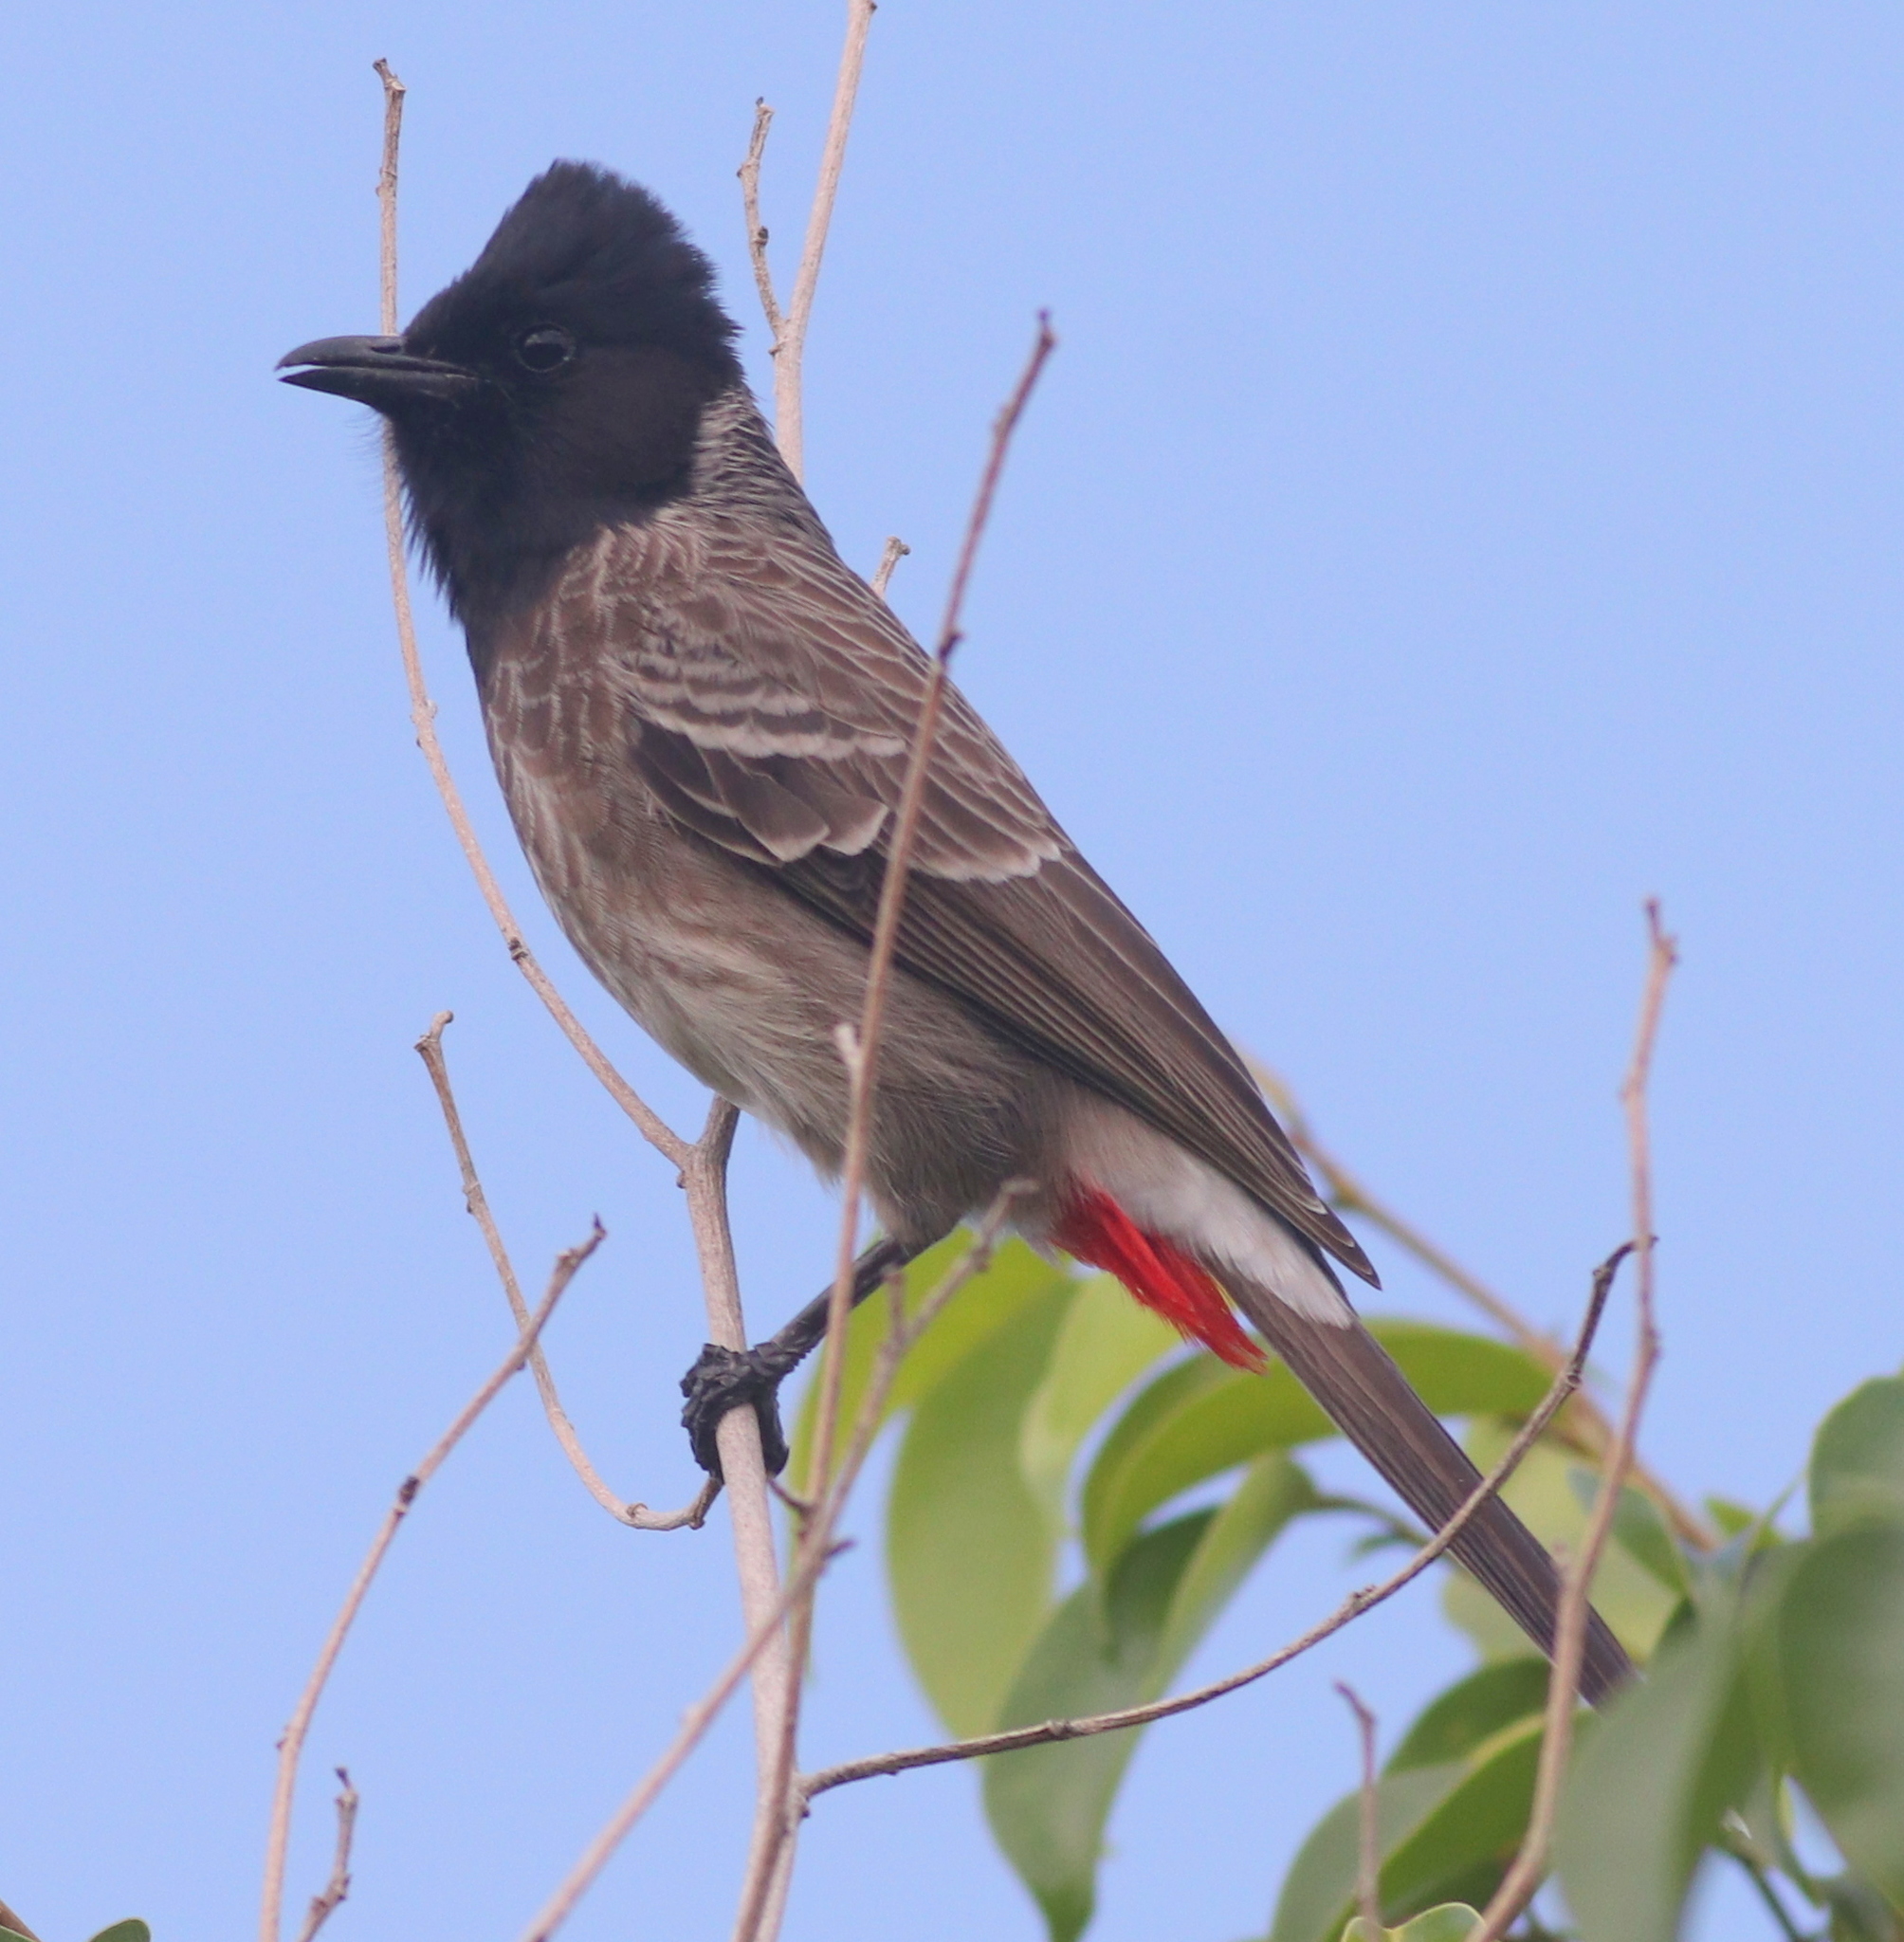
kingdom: Animalia
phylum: Chordata
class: Aves
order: Passeriformes
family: Pycnonotidae
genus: Pycnonotus
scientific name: Pycnonotus cafer
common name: Red-vented bulbul
